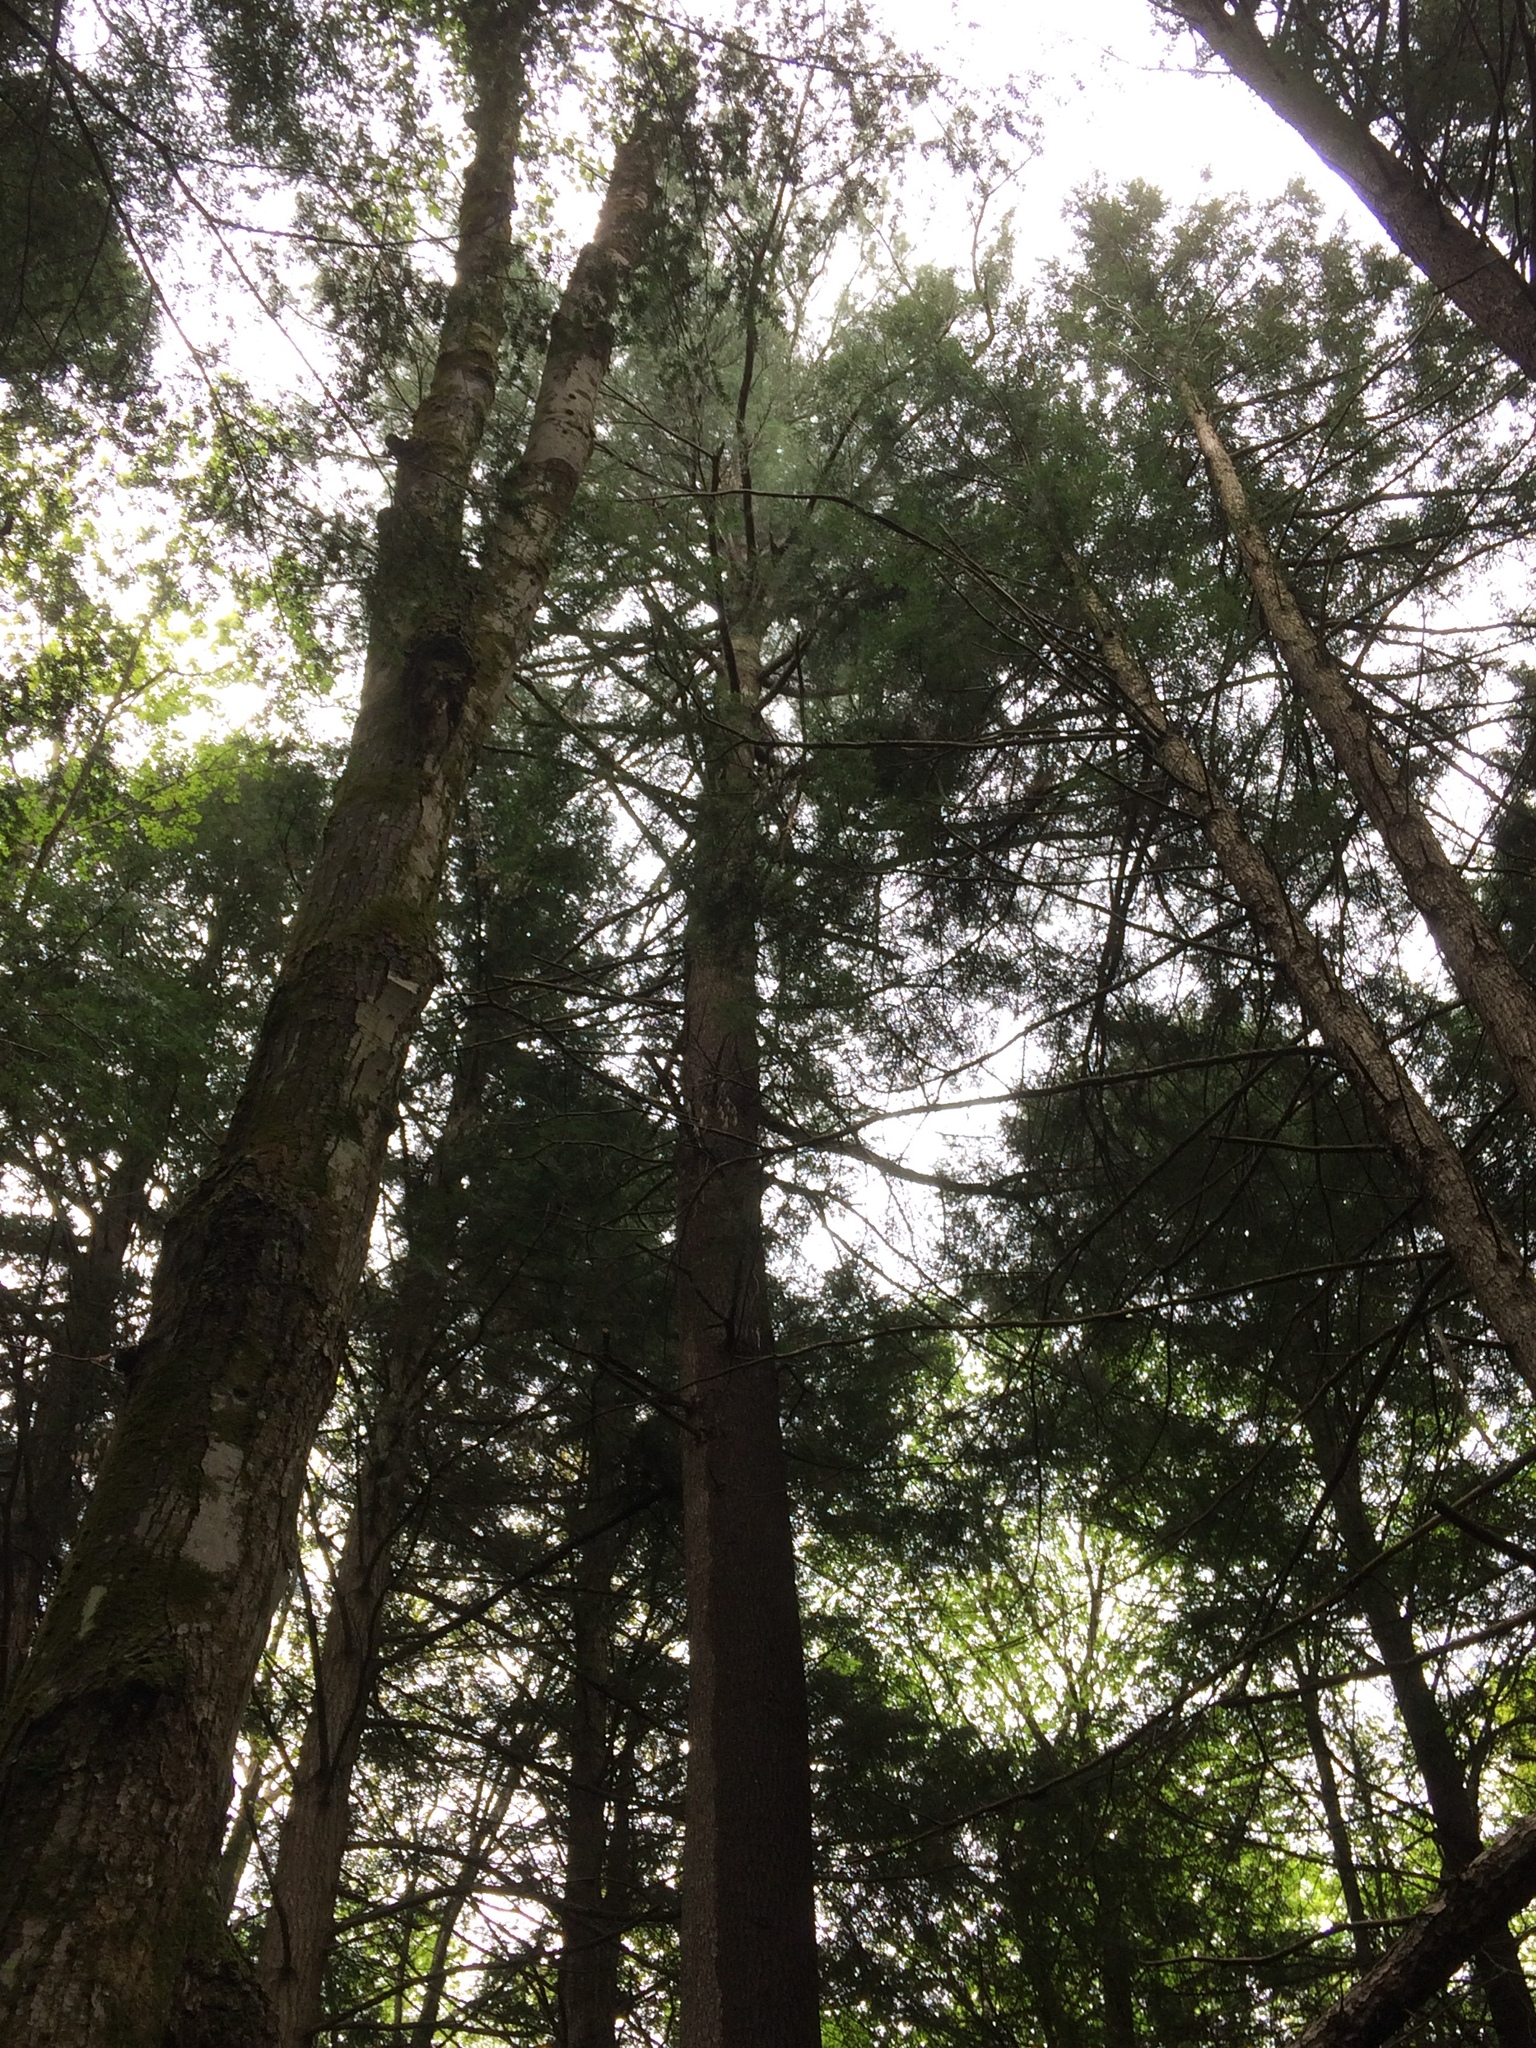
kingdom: Plantae
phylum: Tracheophyta
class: Pinopsida
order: Pinales
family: Pinaceae
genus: Pinus
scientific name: Pinus strobus
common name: Weymouth pine
